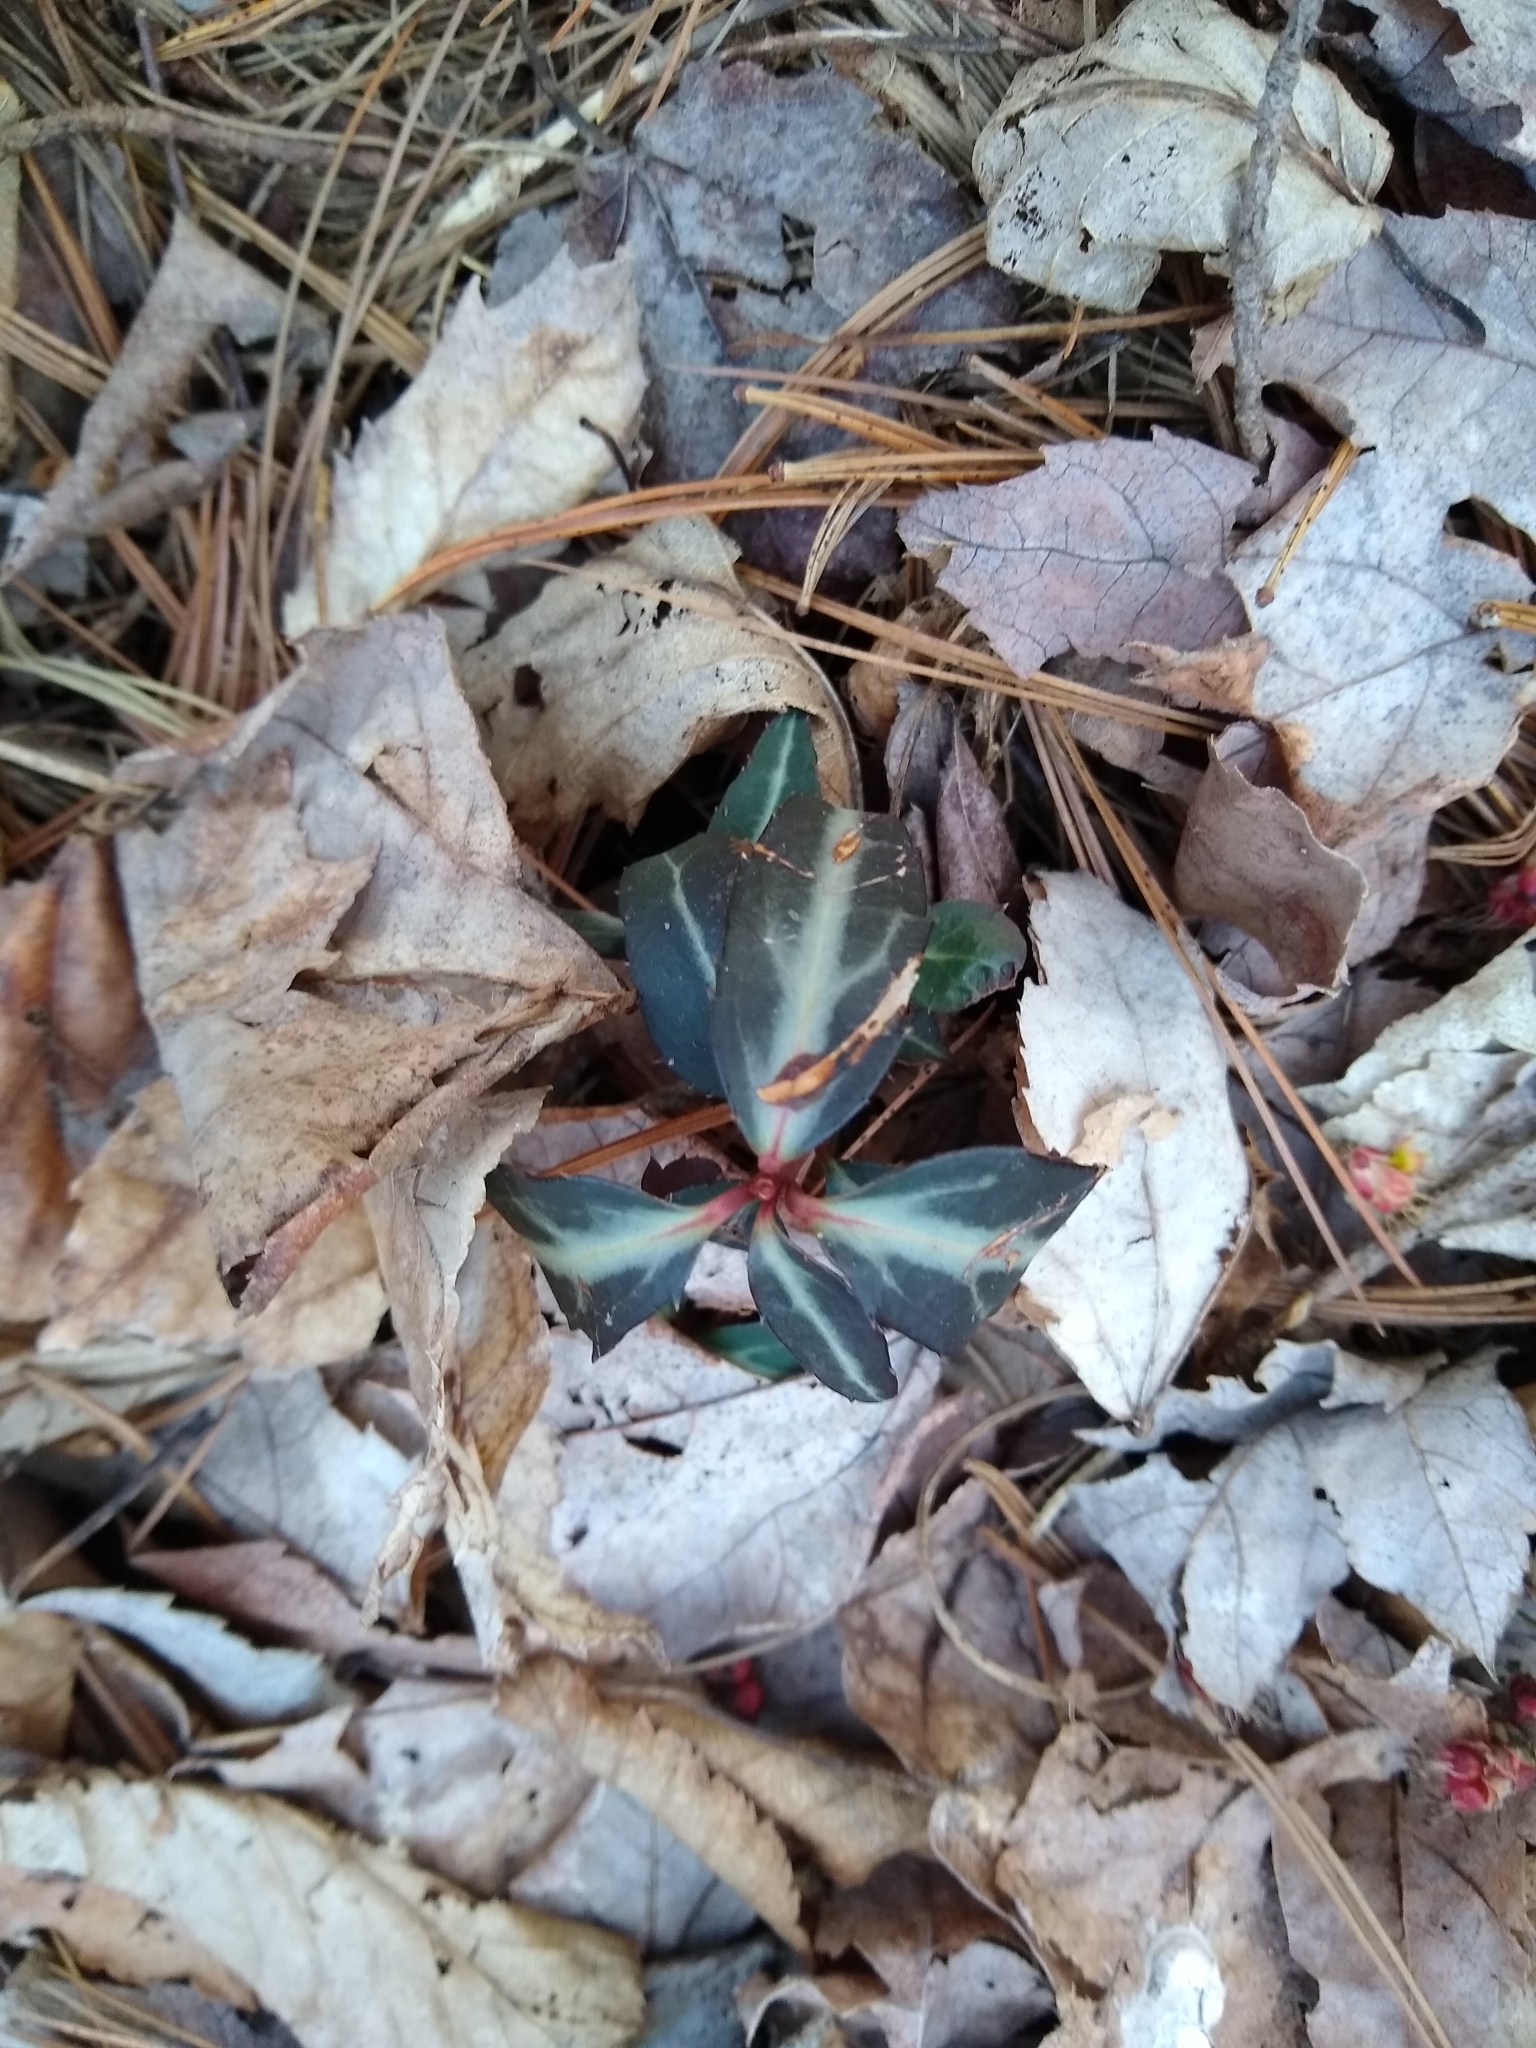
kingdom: Plantae
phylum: Tracheophyta
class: Magnoliopsida
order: Ericales
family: Ericaceae
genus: Chimaphila
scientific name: Chimaphila maculata
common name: Spotted pipsissewa
